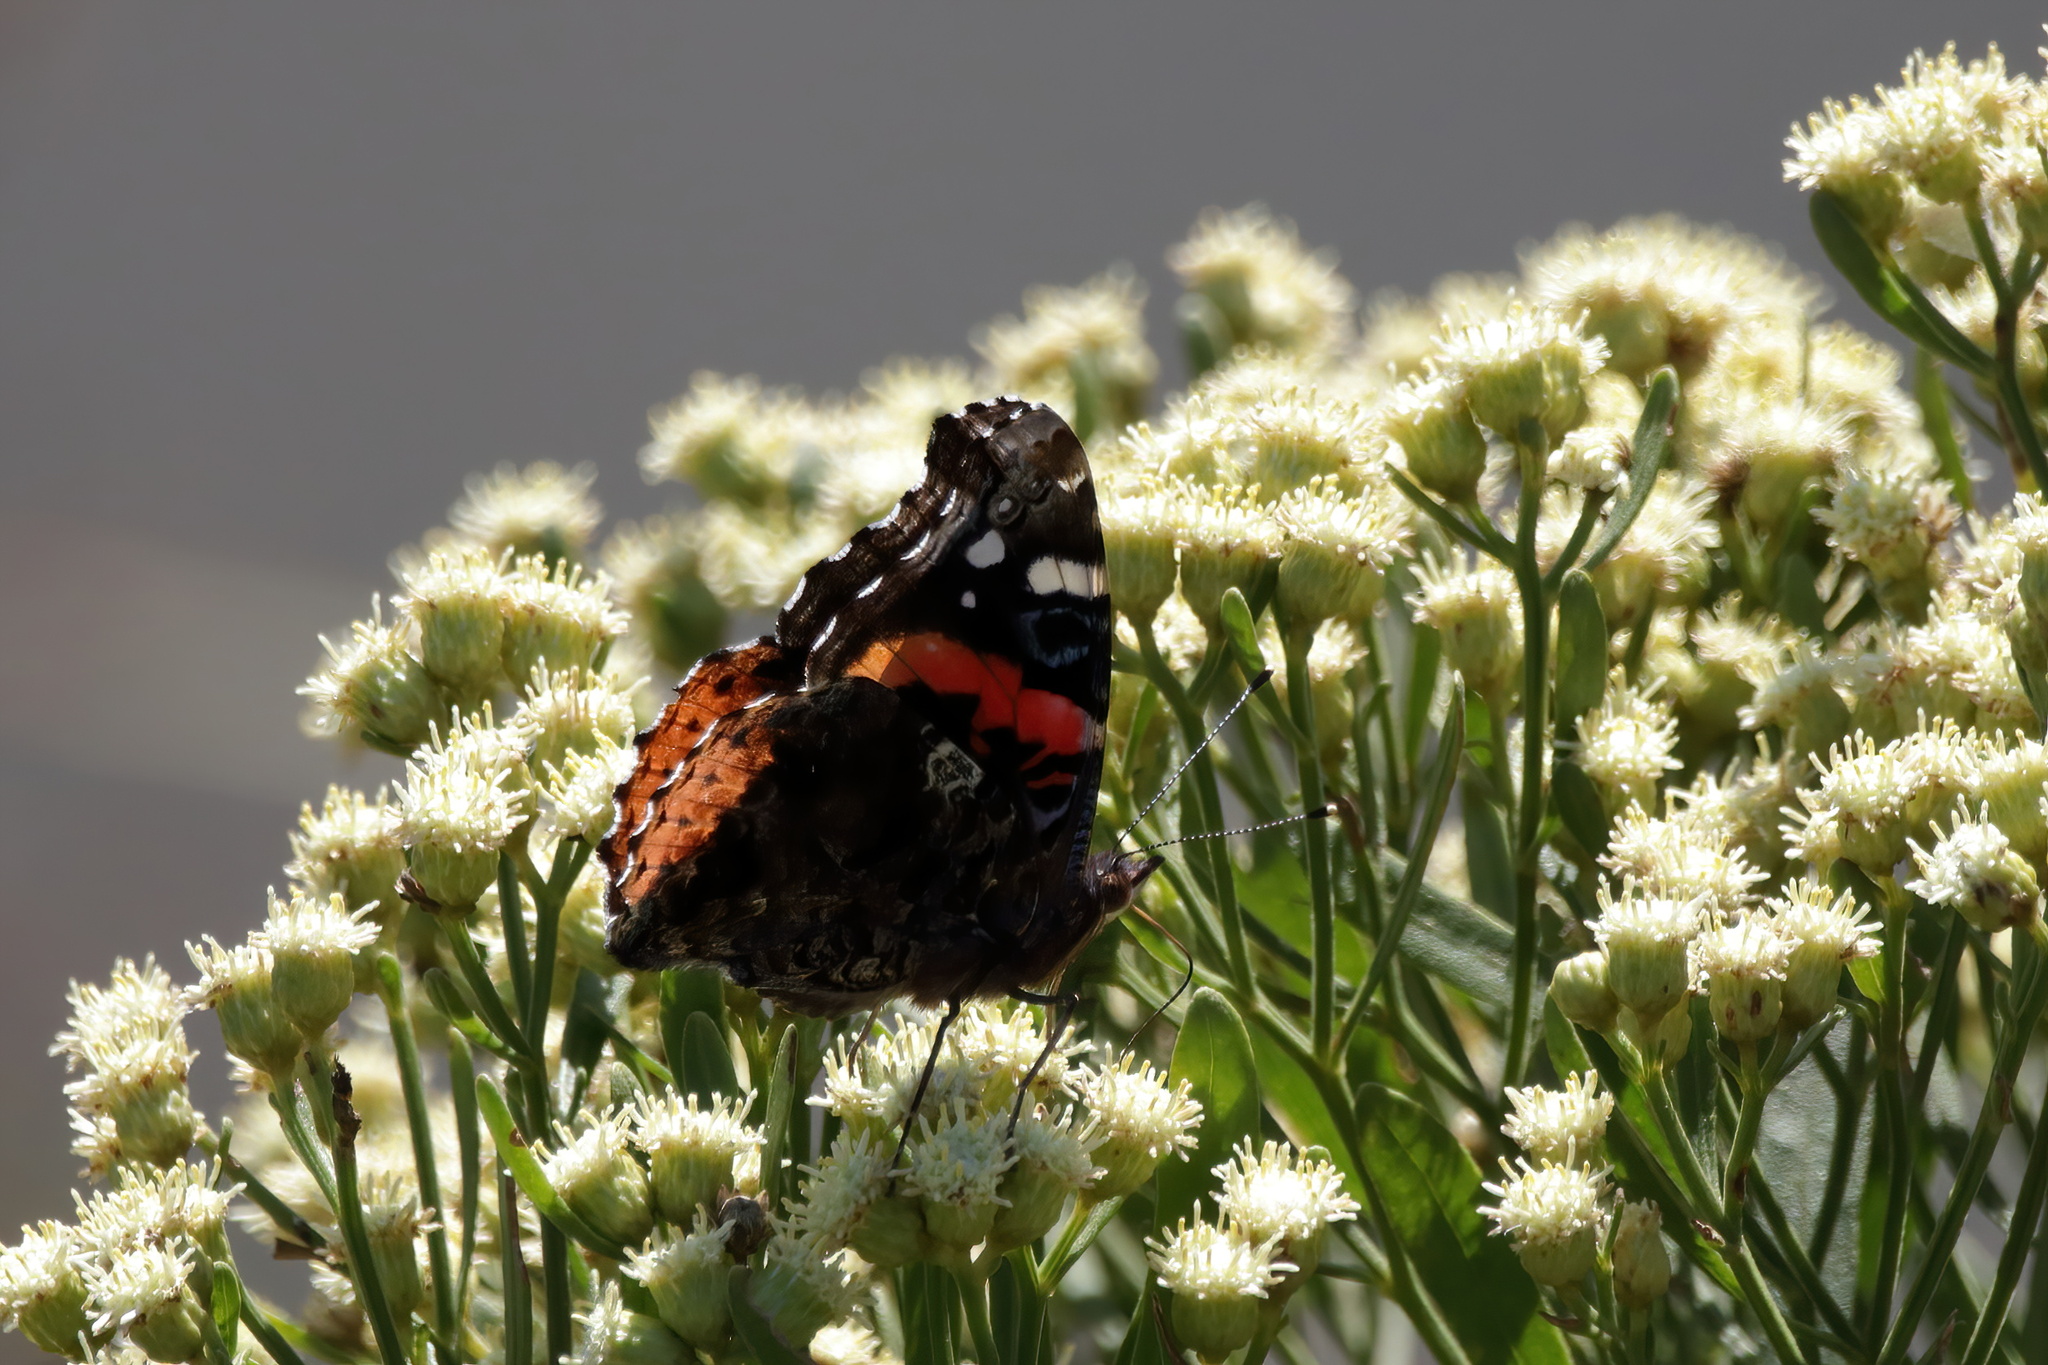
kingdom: Animalia
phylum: Arthropoda
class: Insecta
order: Lepidoptera
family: Nymphalidae
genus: Vanessa
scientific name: Vanessa atalanta
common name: Red admiral
